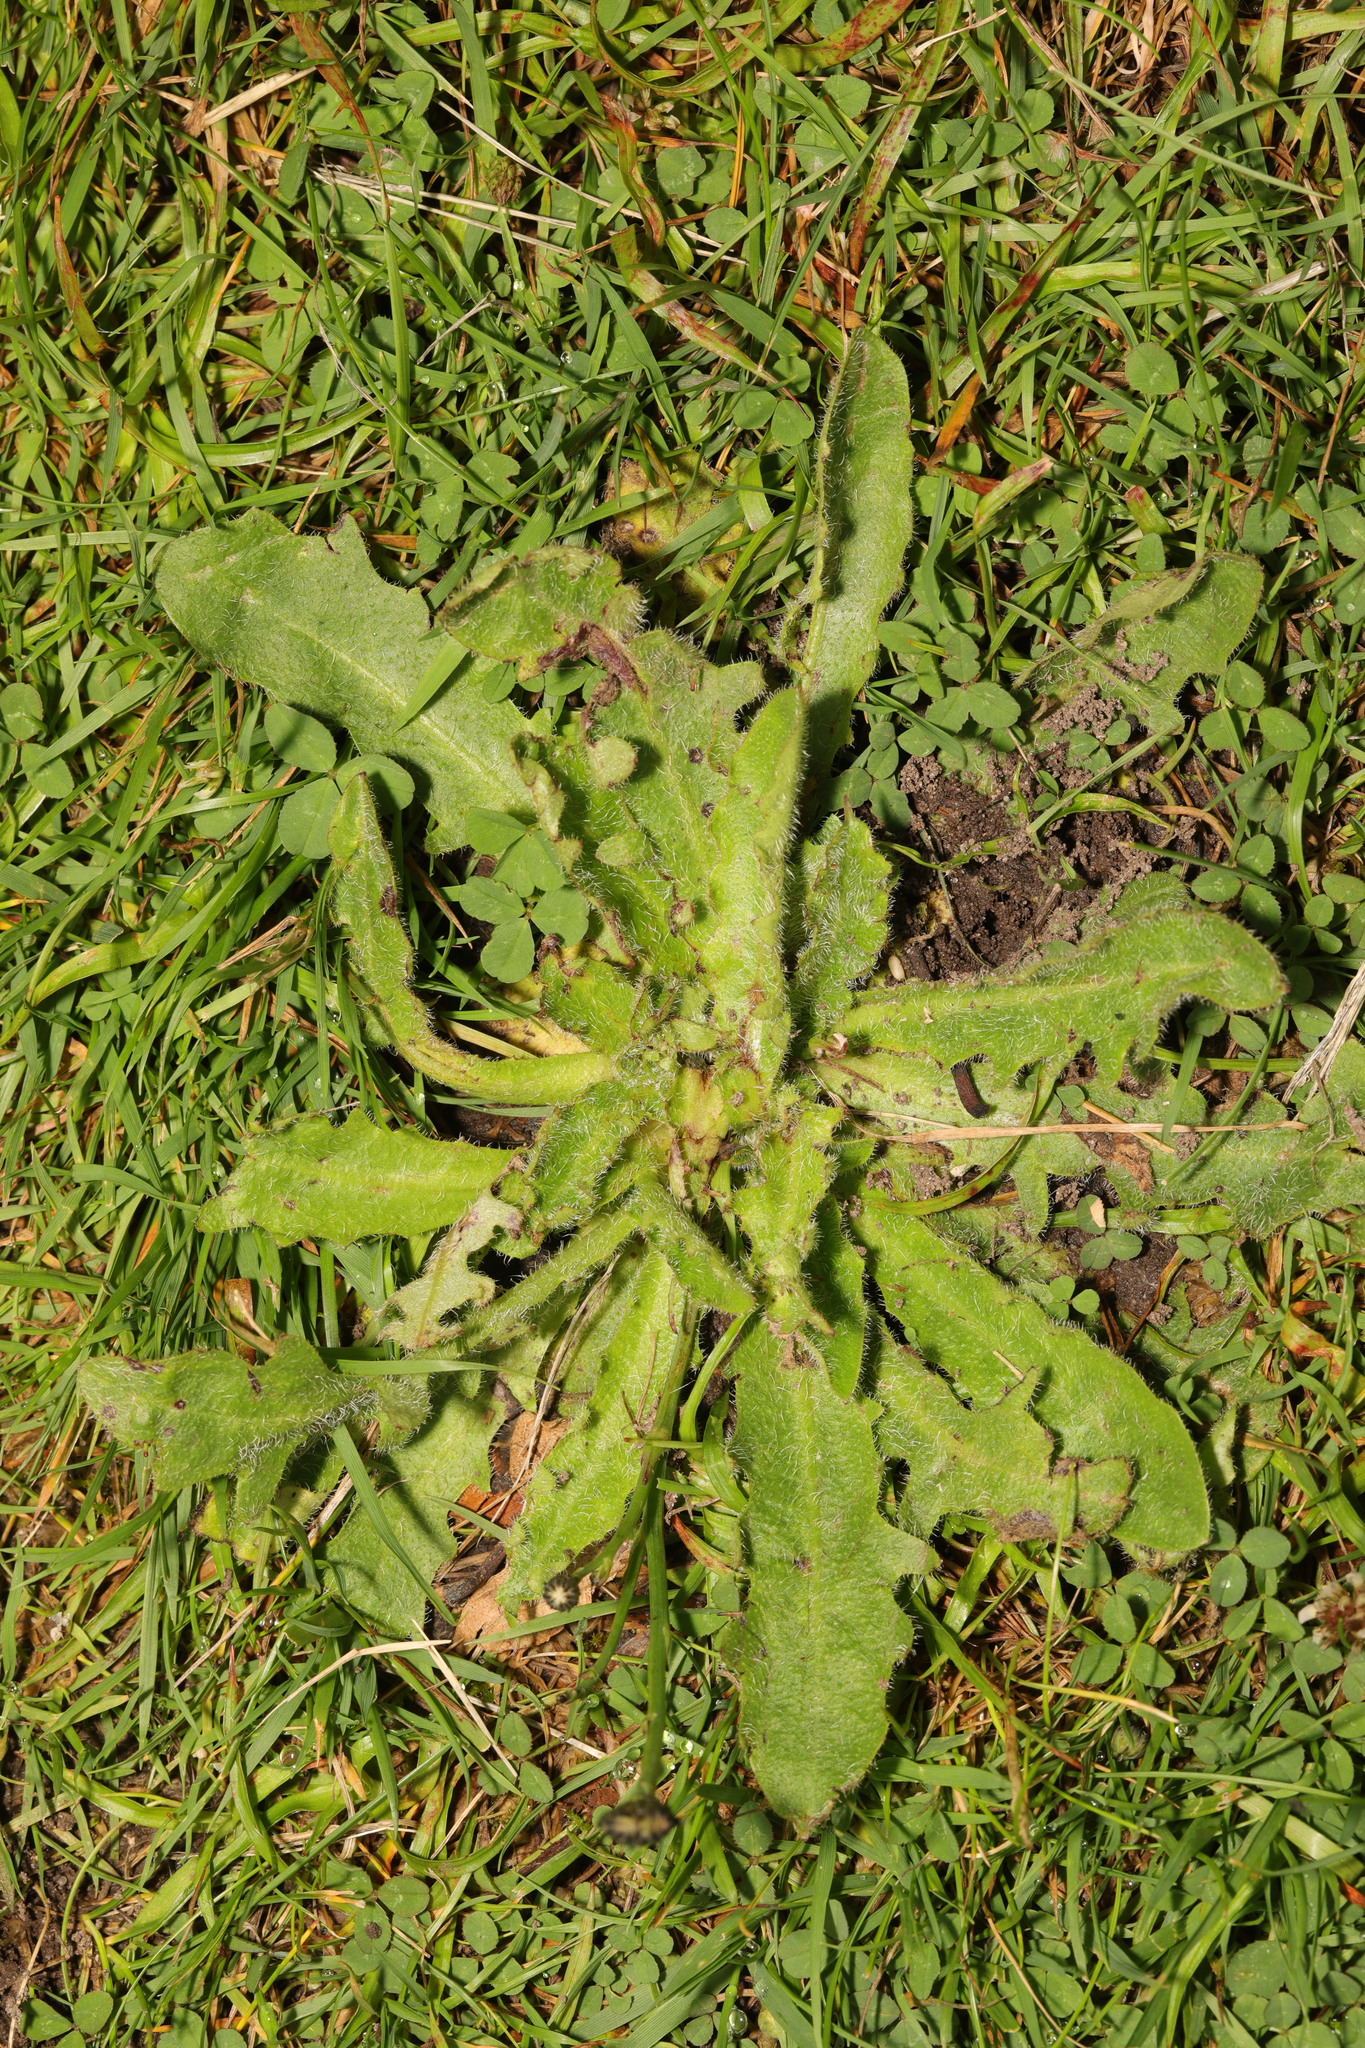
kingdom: Plantae
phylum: Tracheophyta
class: Magnoliopsida
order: Asterales
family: Asteraceae
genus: Hypochaeris
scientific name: Hypochaeris radicata
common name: Flatweed
